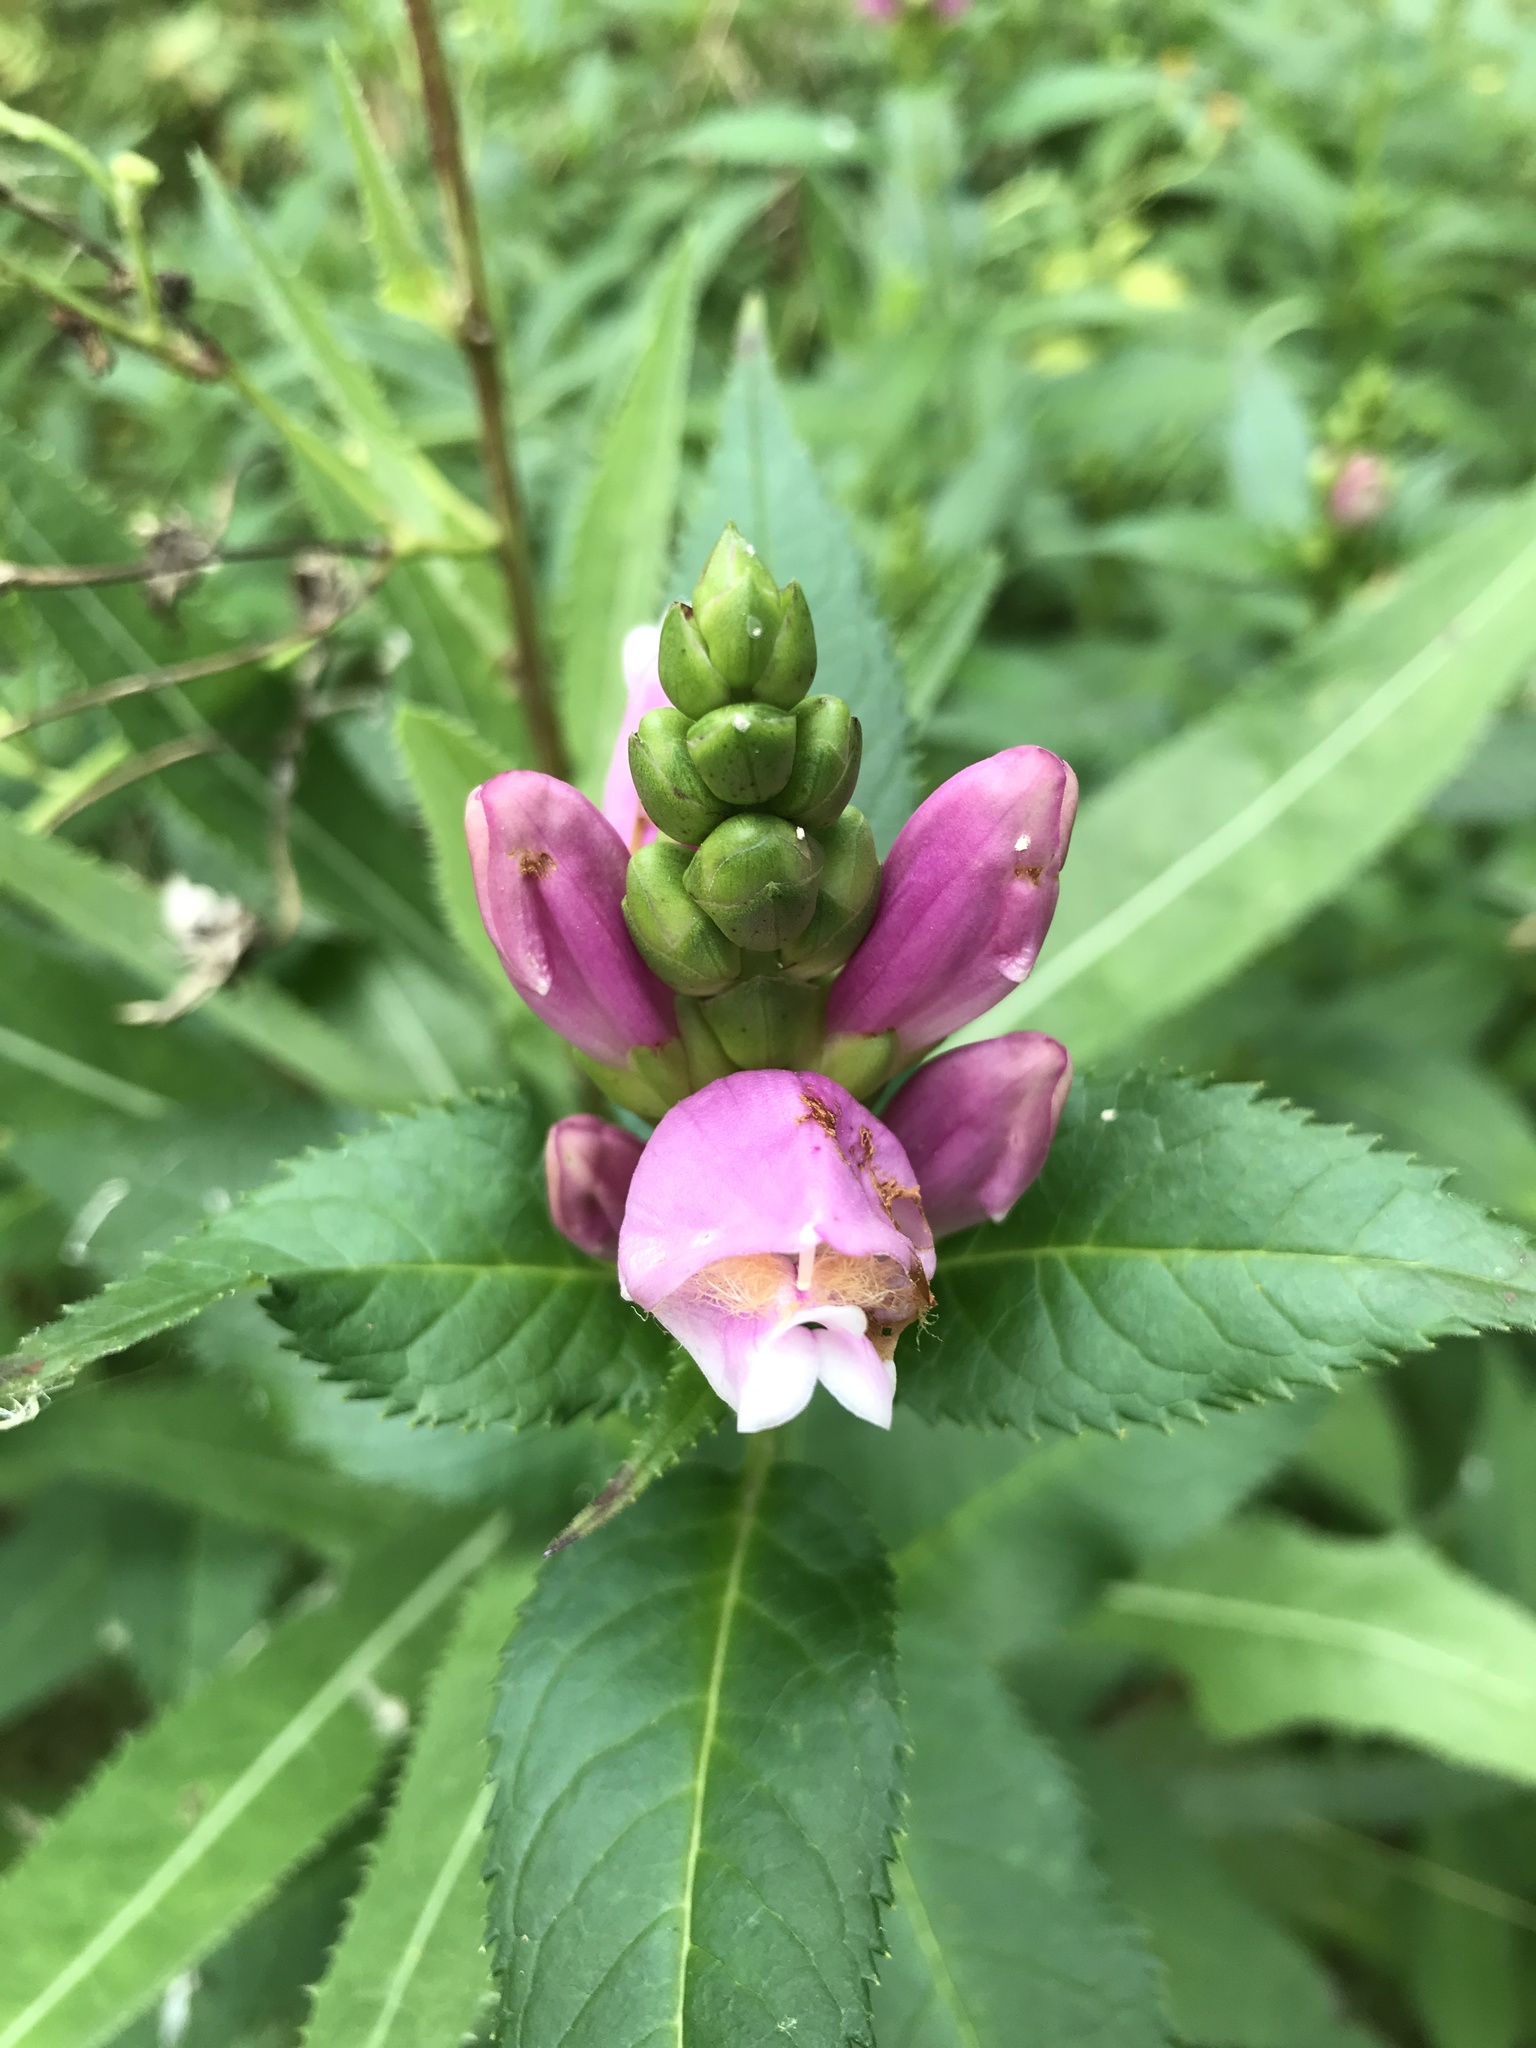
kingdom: Plantae
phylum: Tracheophyta
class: Magnoliopsida
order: Lamiales
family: Plantaginaceae
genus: Chelone
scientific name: Chelone lyonii
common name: Pink turtlehead
